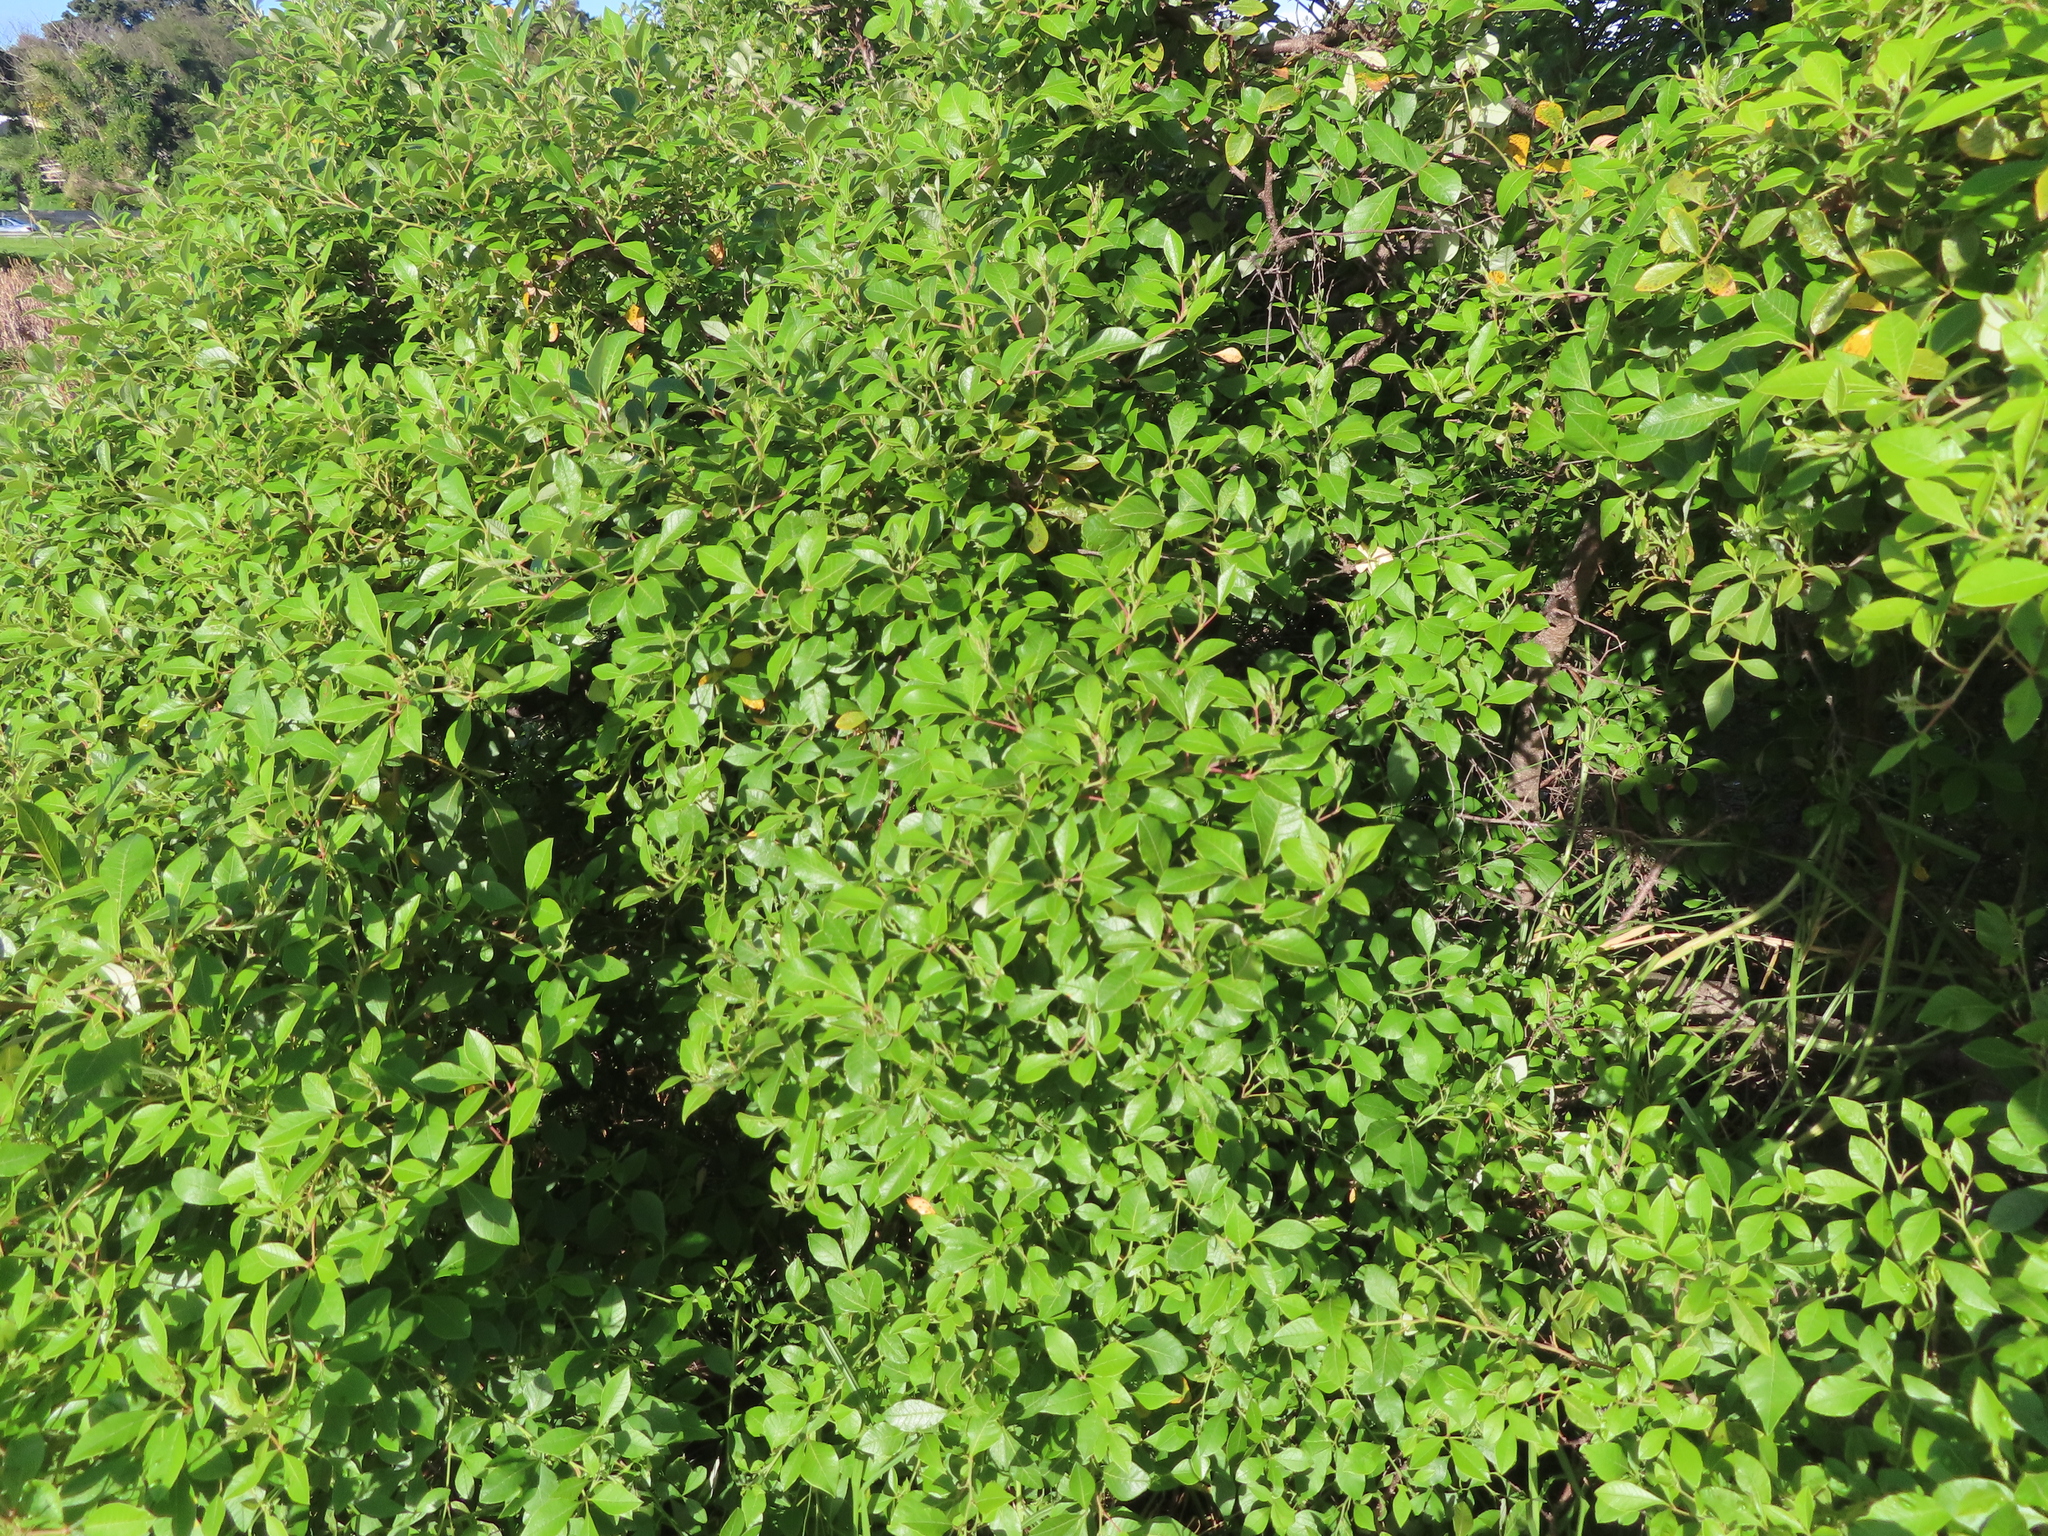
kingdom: Plantae
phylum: Tracheophyta
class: Magnoliopsida
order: Sapindales
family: Anacardiaceae
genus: Searsia
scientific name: Searsia tomentosa
